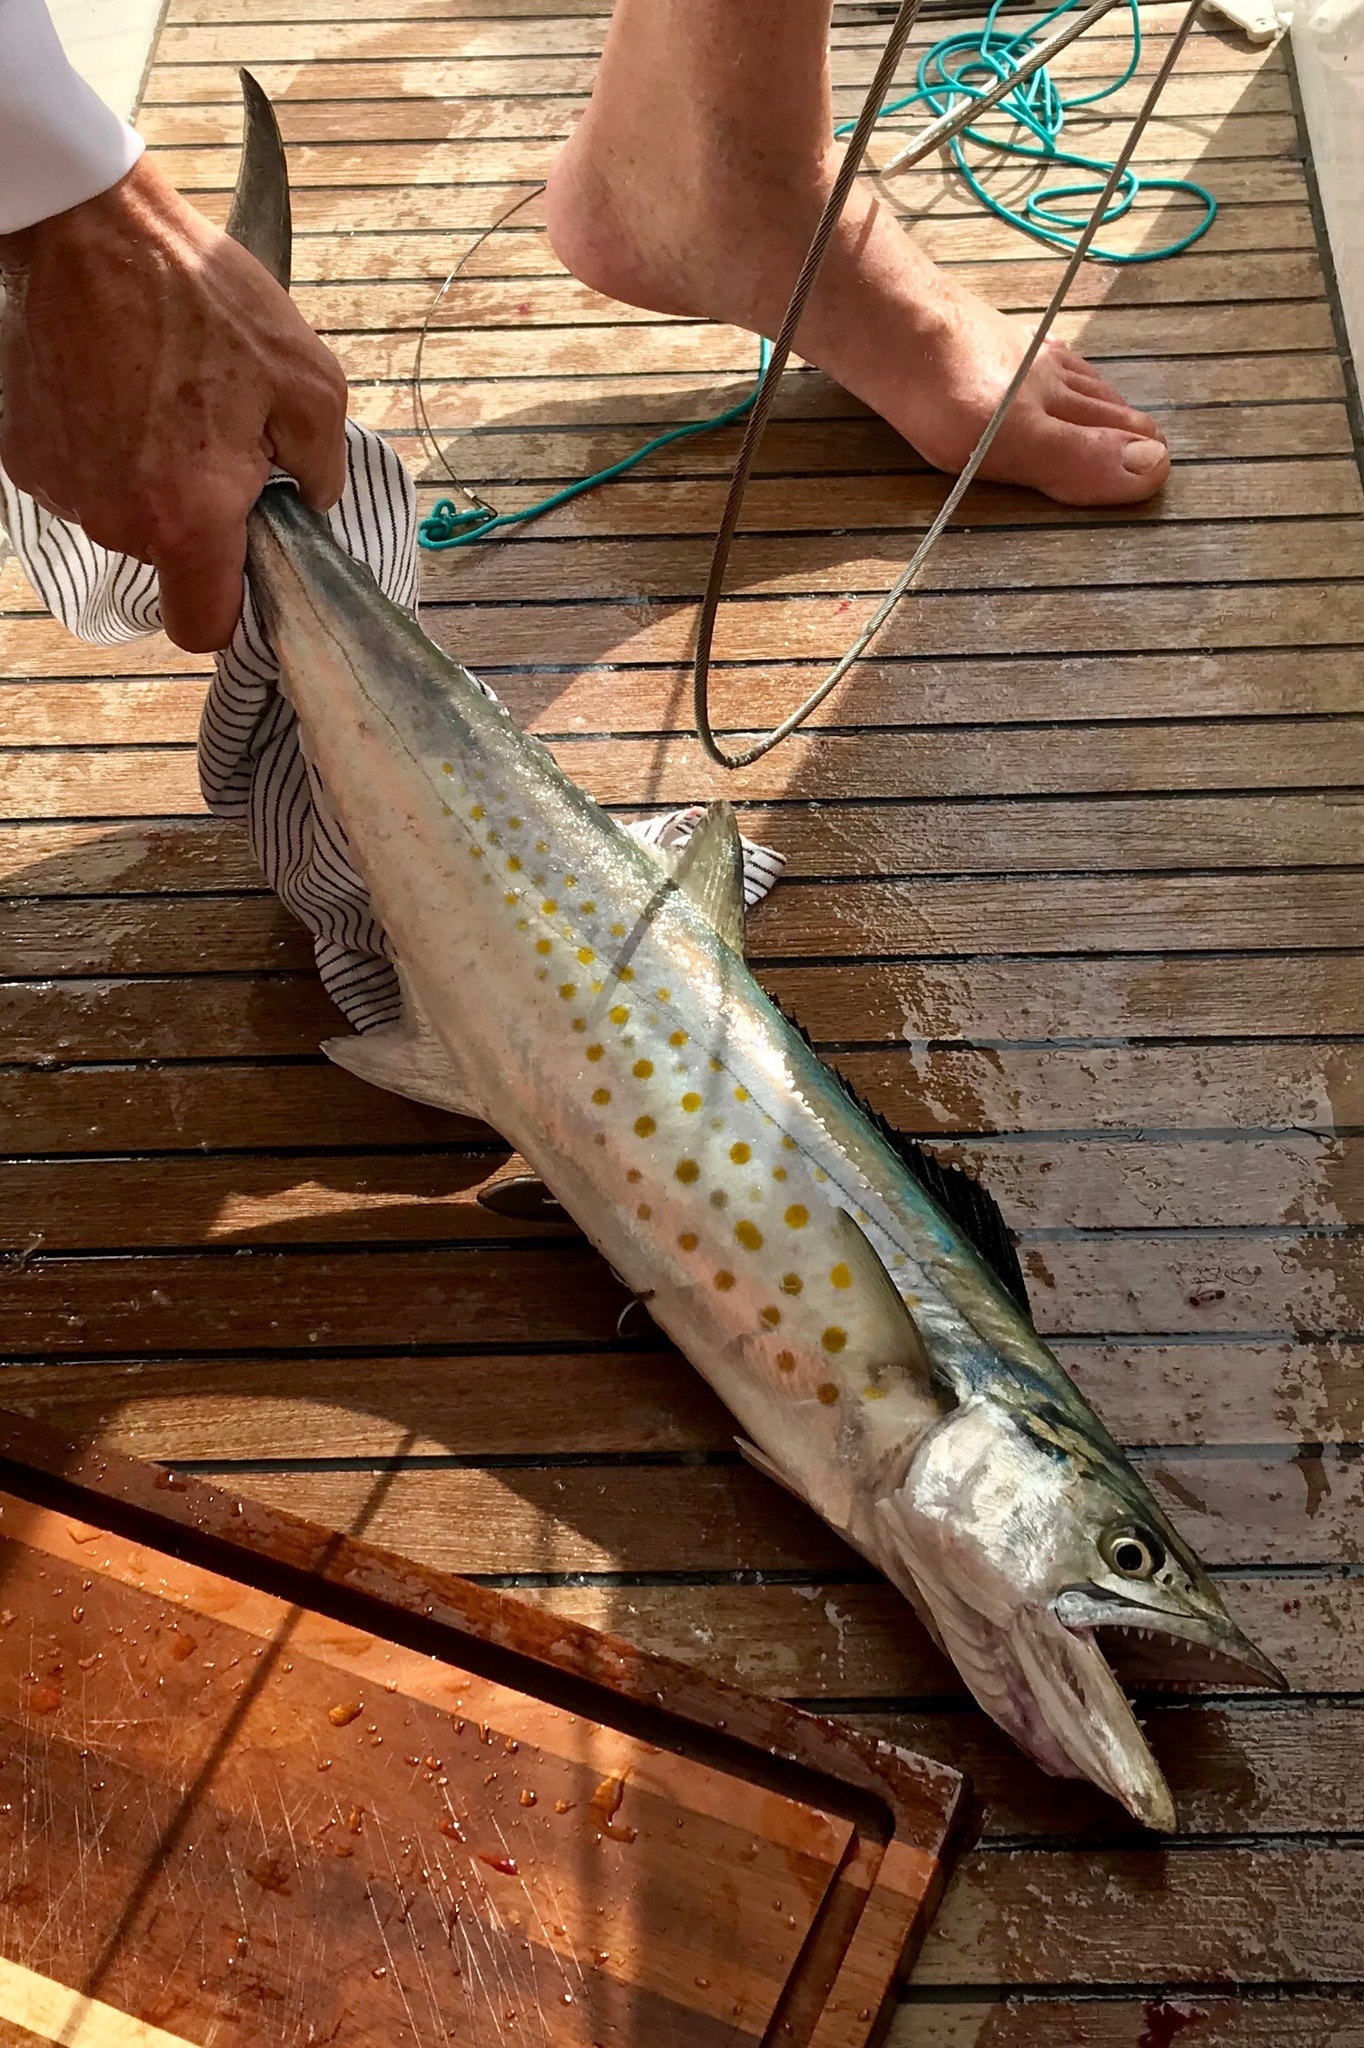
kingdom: Animalia
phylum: Chordata
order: Perciformes
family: Scombridae
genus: Scomberomorus
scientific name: Scomberomorus sierra
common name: Pacific sierra
